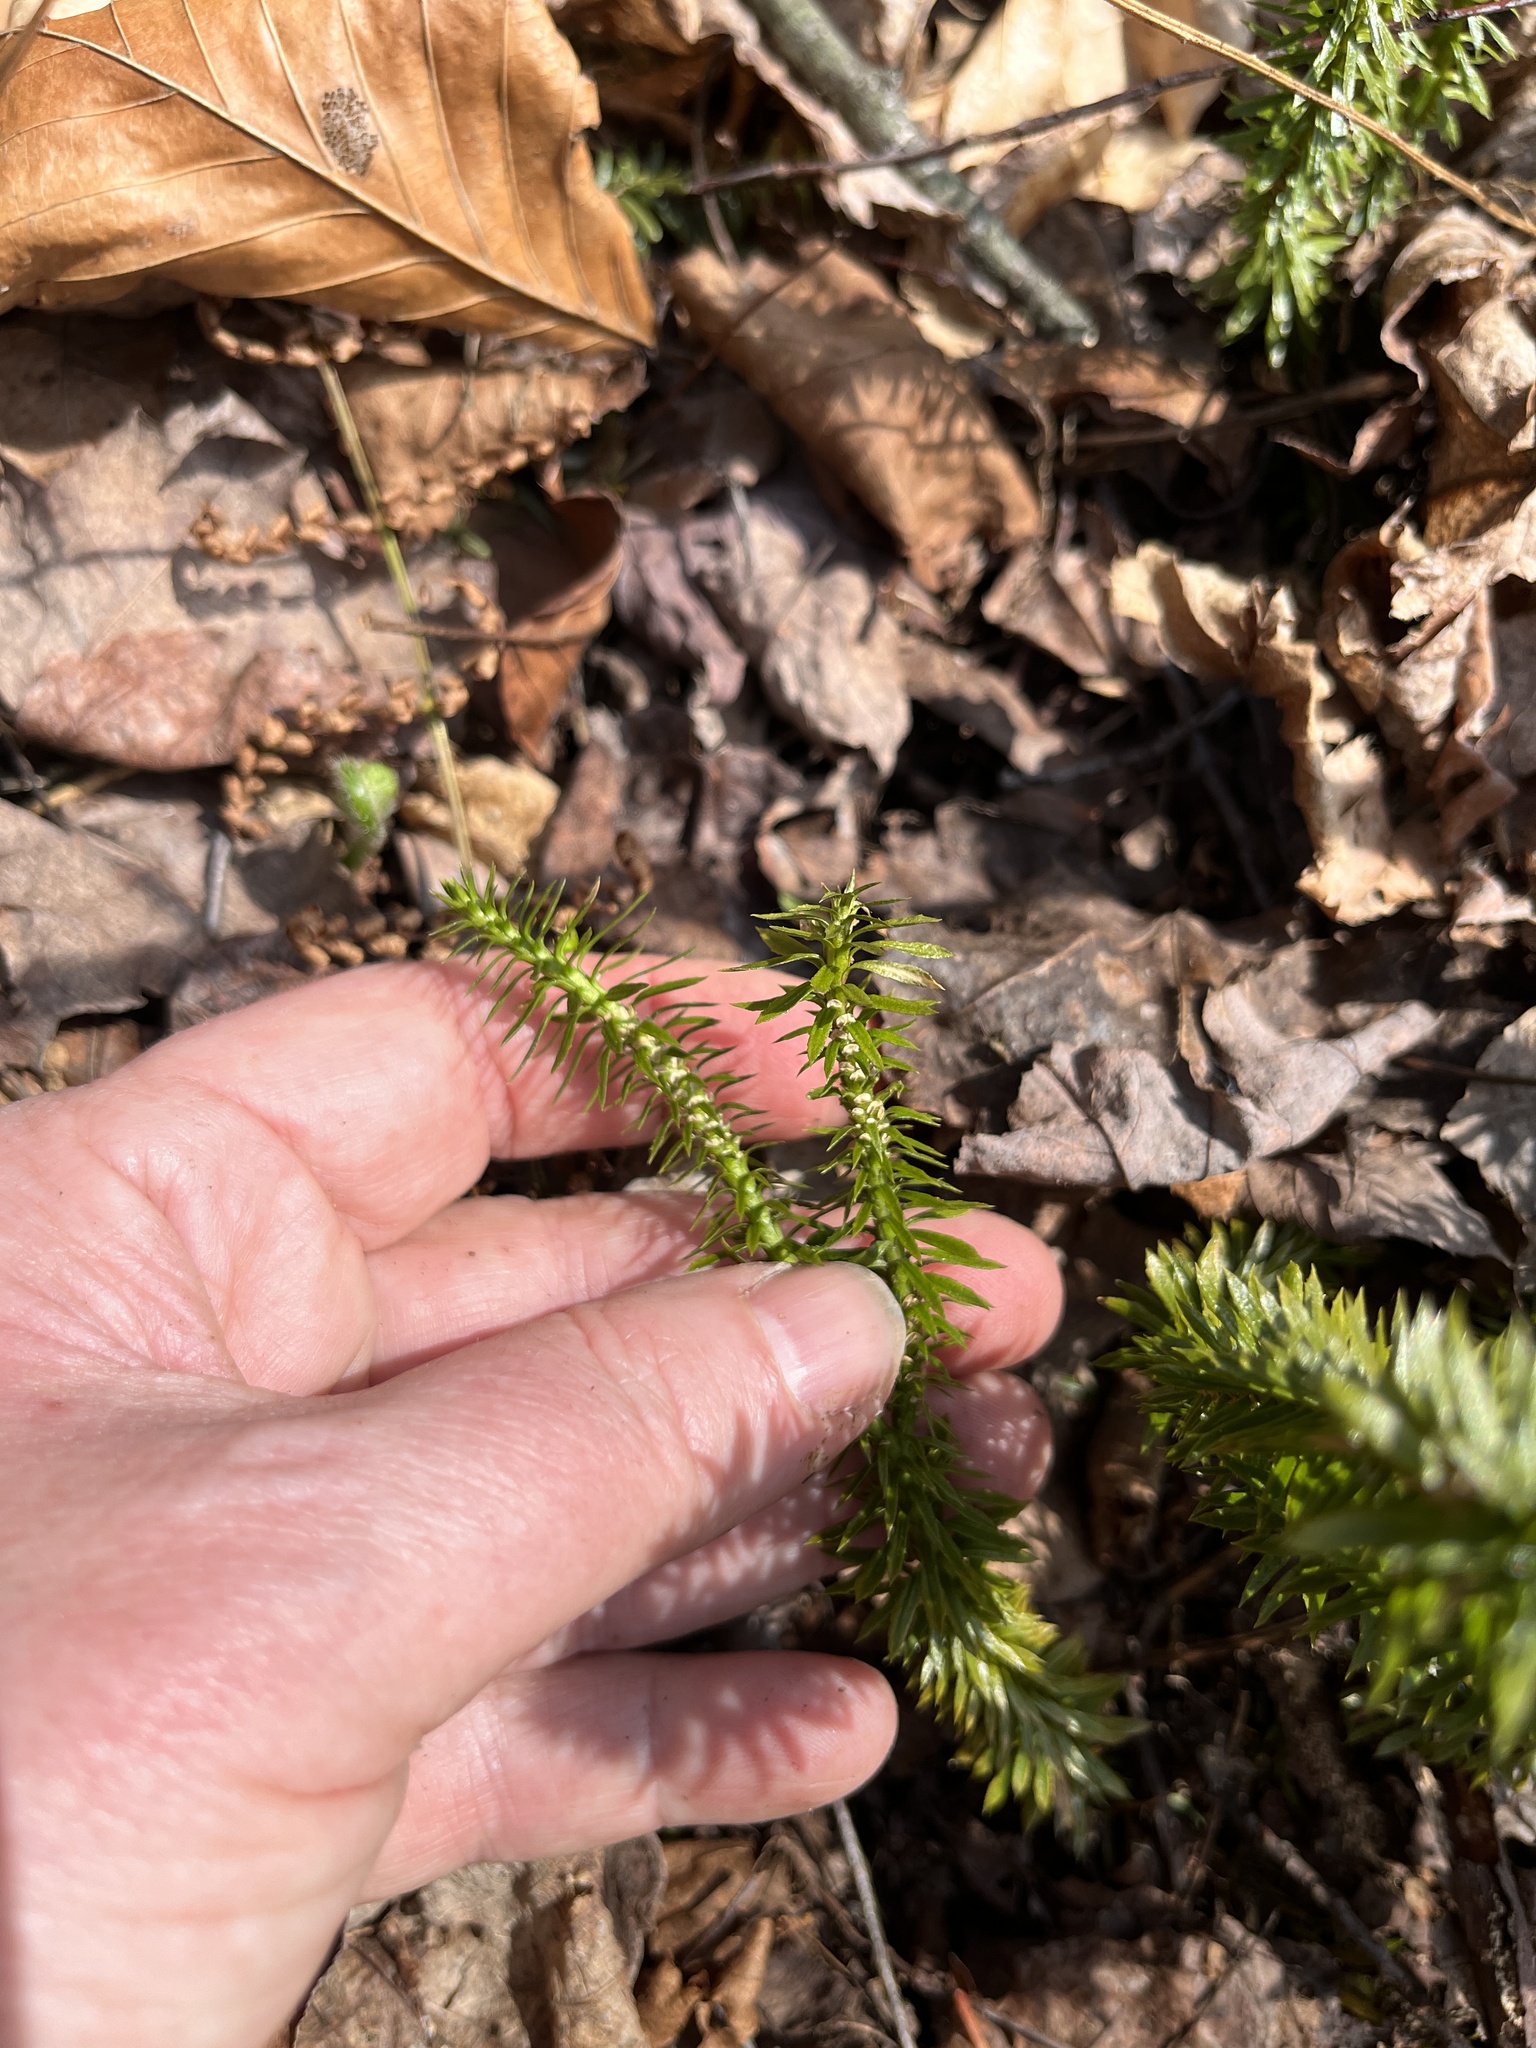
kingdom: Plantae
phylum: Tracheophyta
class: Lycopodiopsida
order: Lycopodiales
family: Lycopodiaceae
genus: Huperzia
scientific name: Huperzia lucidula
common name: Shining clubmoss
